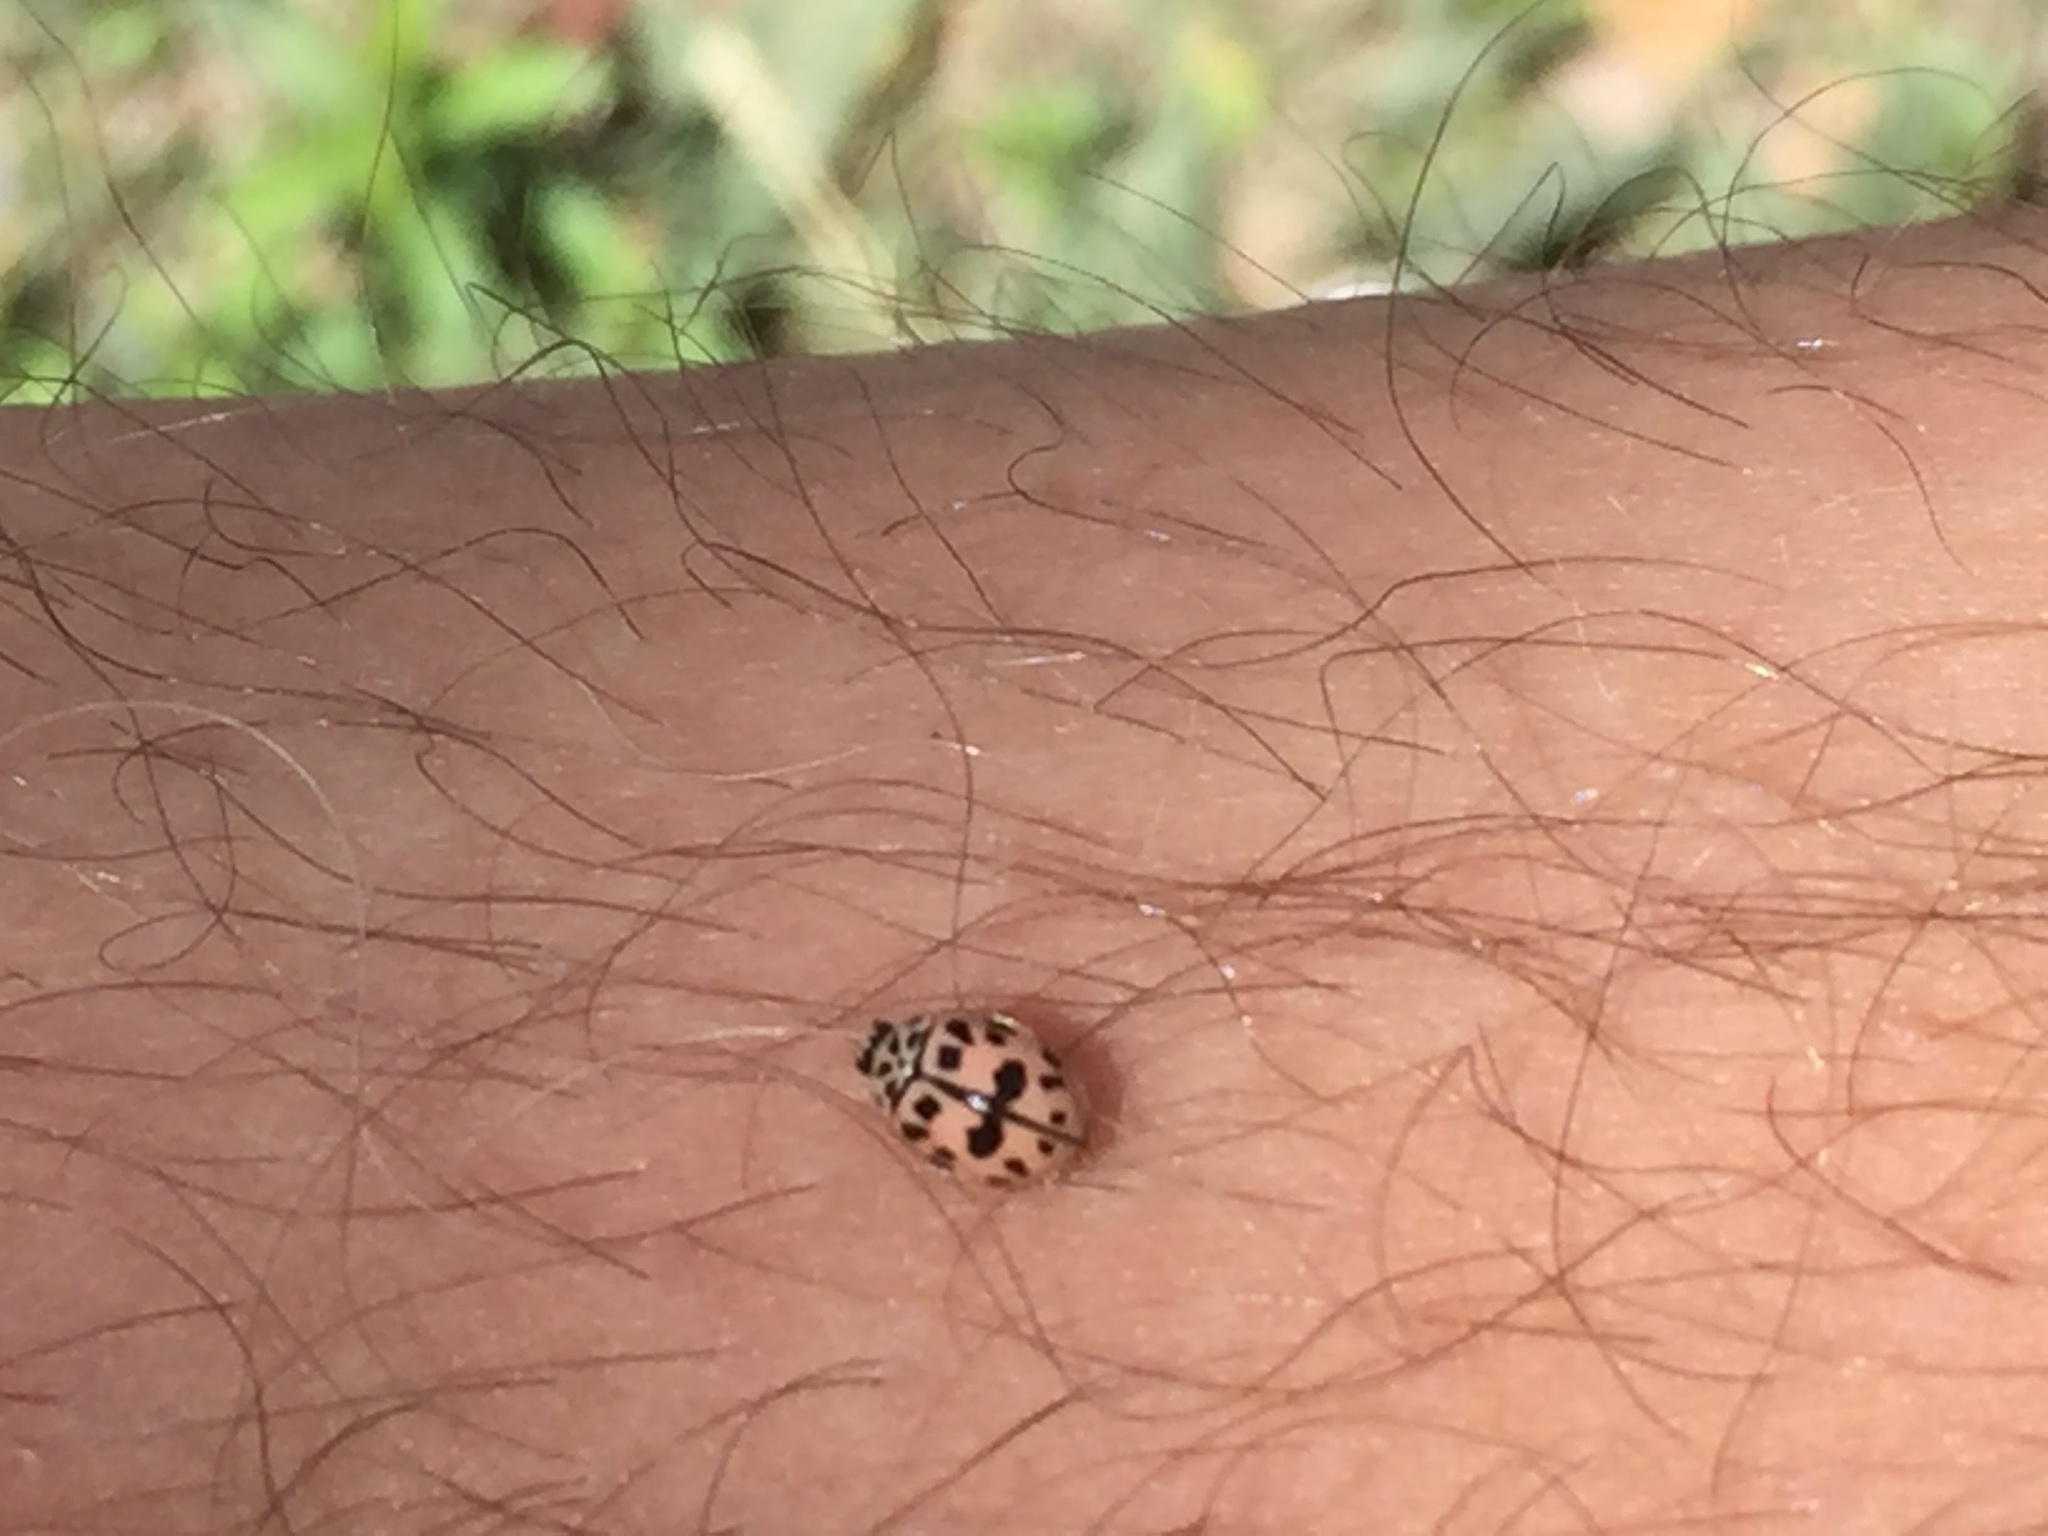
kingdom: Animalia
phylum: Arthropoda
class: Insecta
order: Coleoptera
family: Coccinellidae
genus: Oenopia
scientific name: Oenopia conglobata
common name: Ladybird beetle
